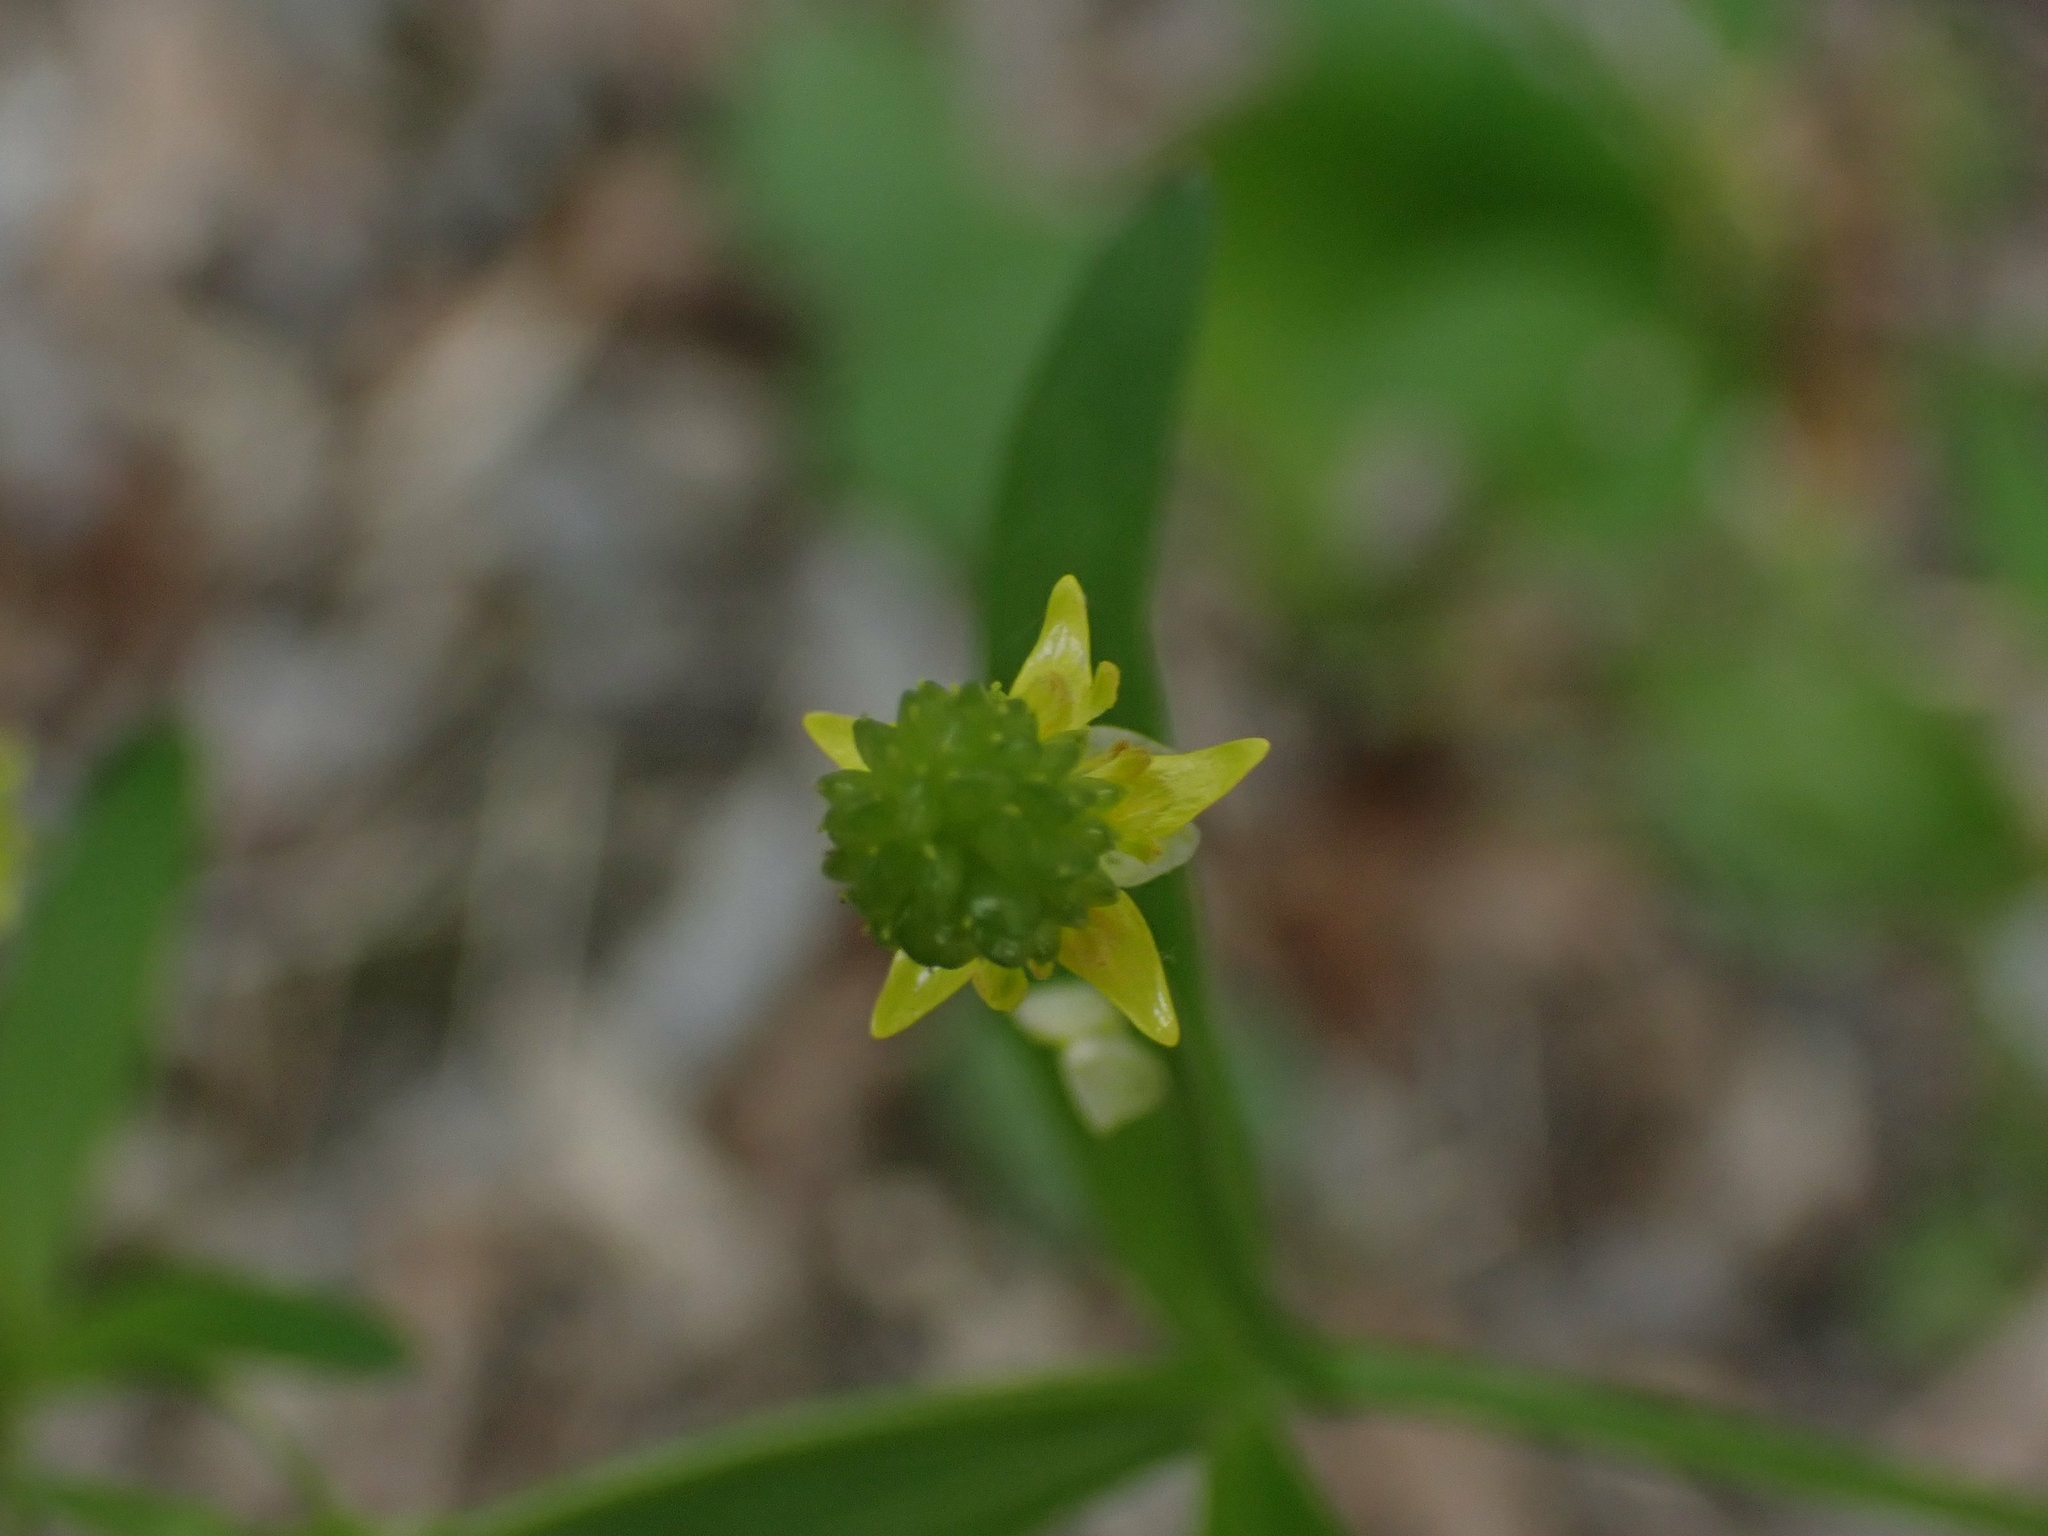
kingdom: Plantae
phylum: Tracheophyta
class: Magnoliopsida
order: Ranunculales
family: Ranunculaceae
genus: Ranunculus
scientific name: Ranunculus abortivus
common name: Early wood buttercup
